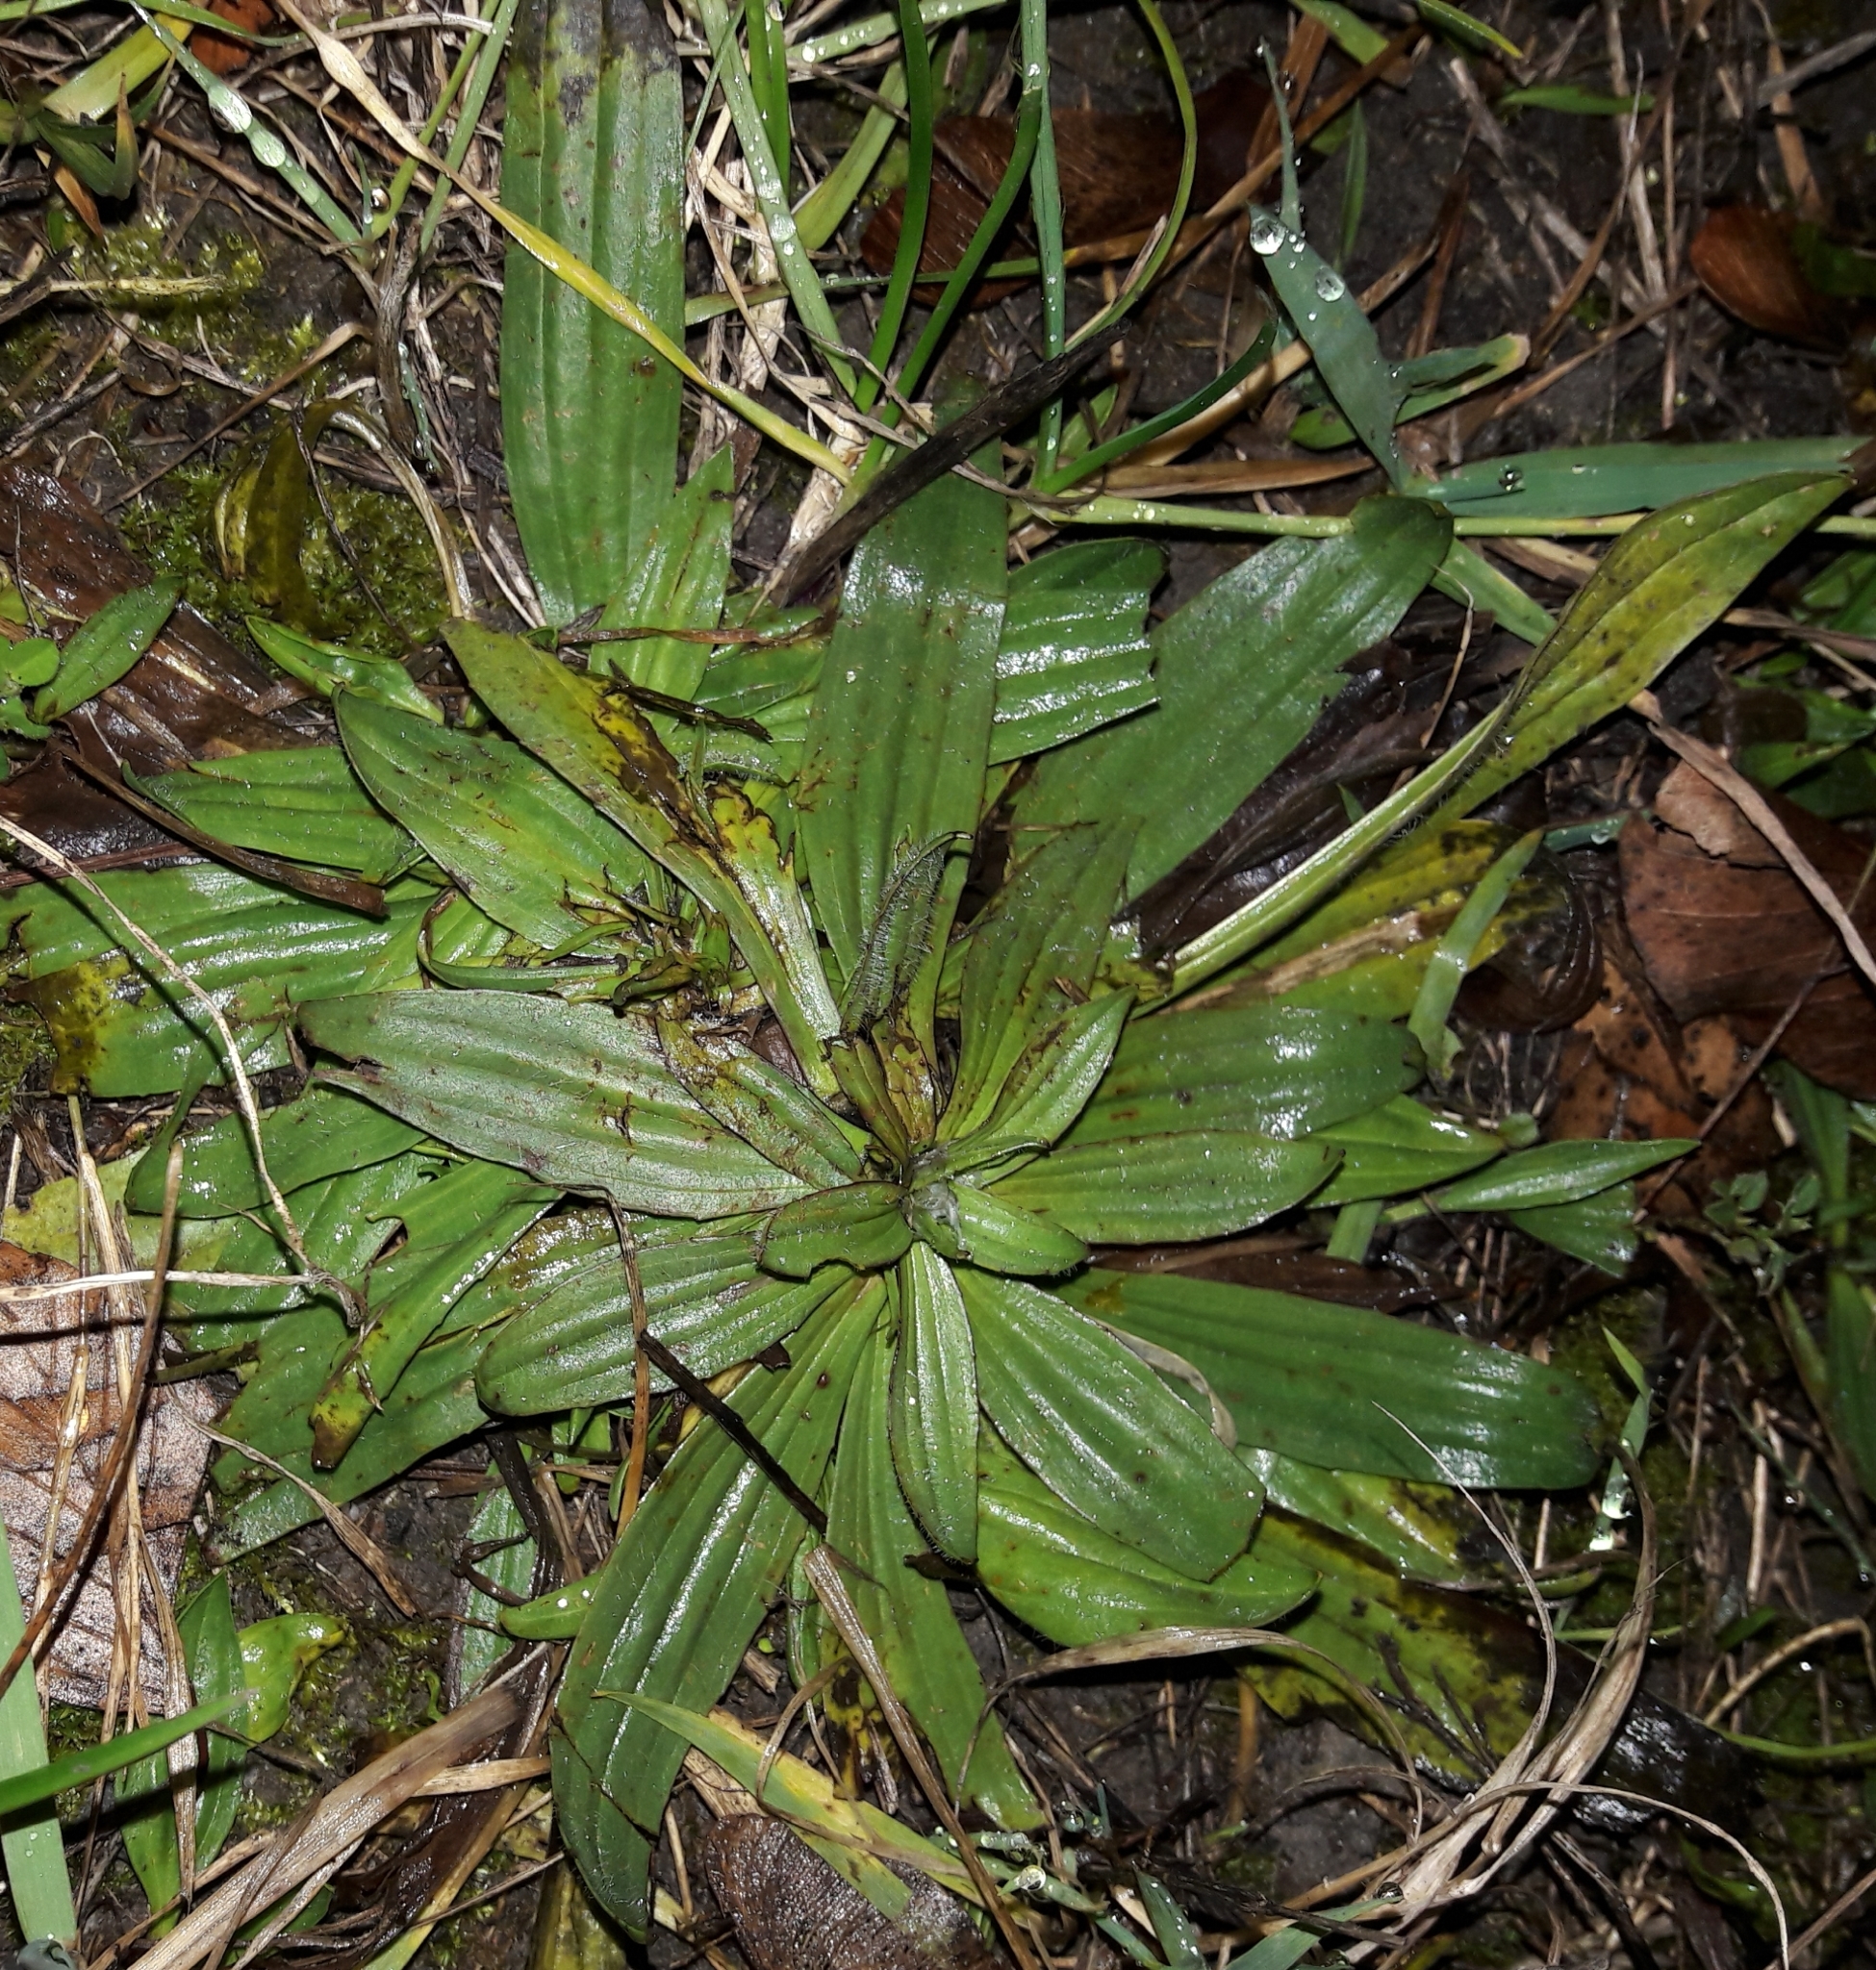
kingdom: Plantae
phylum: Tracheophyta
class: Magnoliopsida
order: Lamiales
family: Plantaginaceae
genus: Plantago
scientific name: Plantago lanceolata
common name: Ribwort plantain
